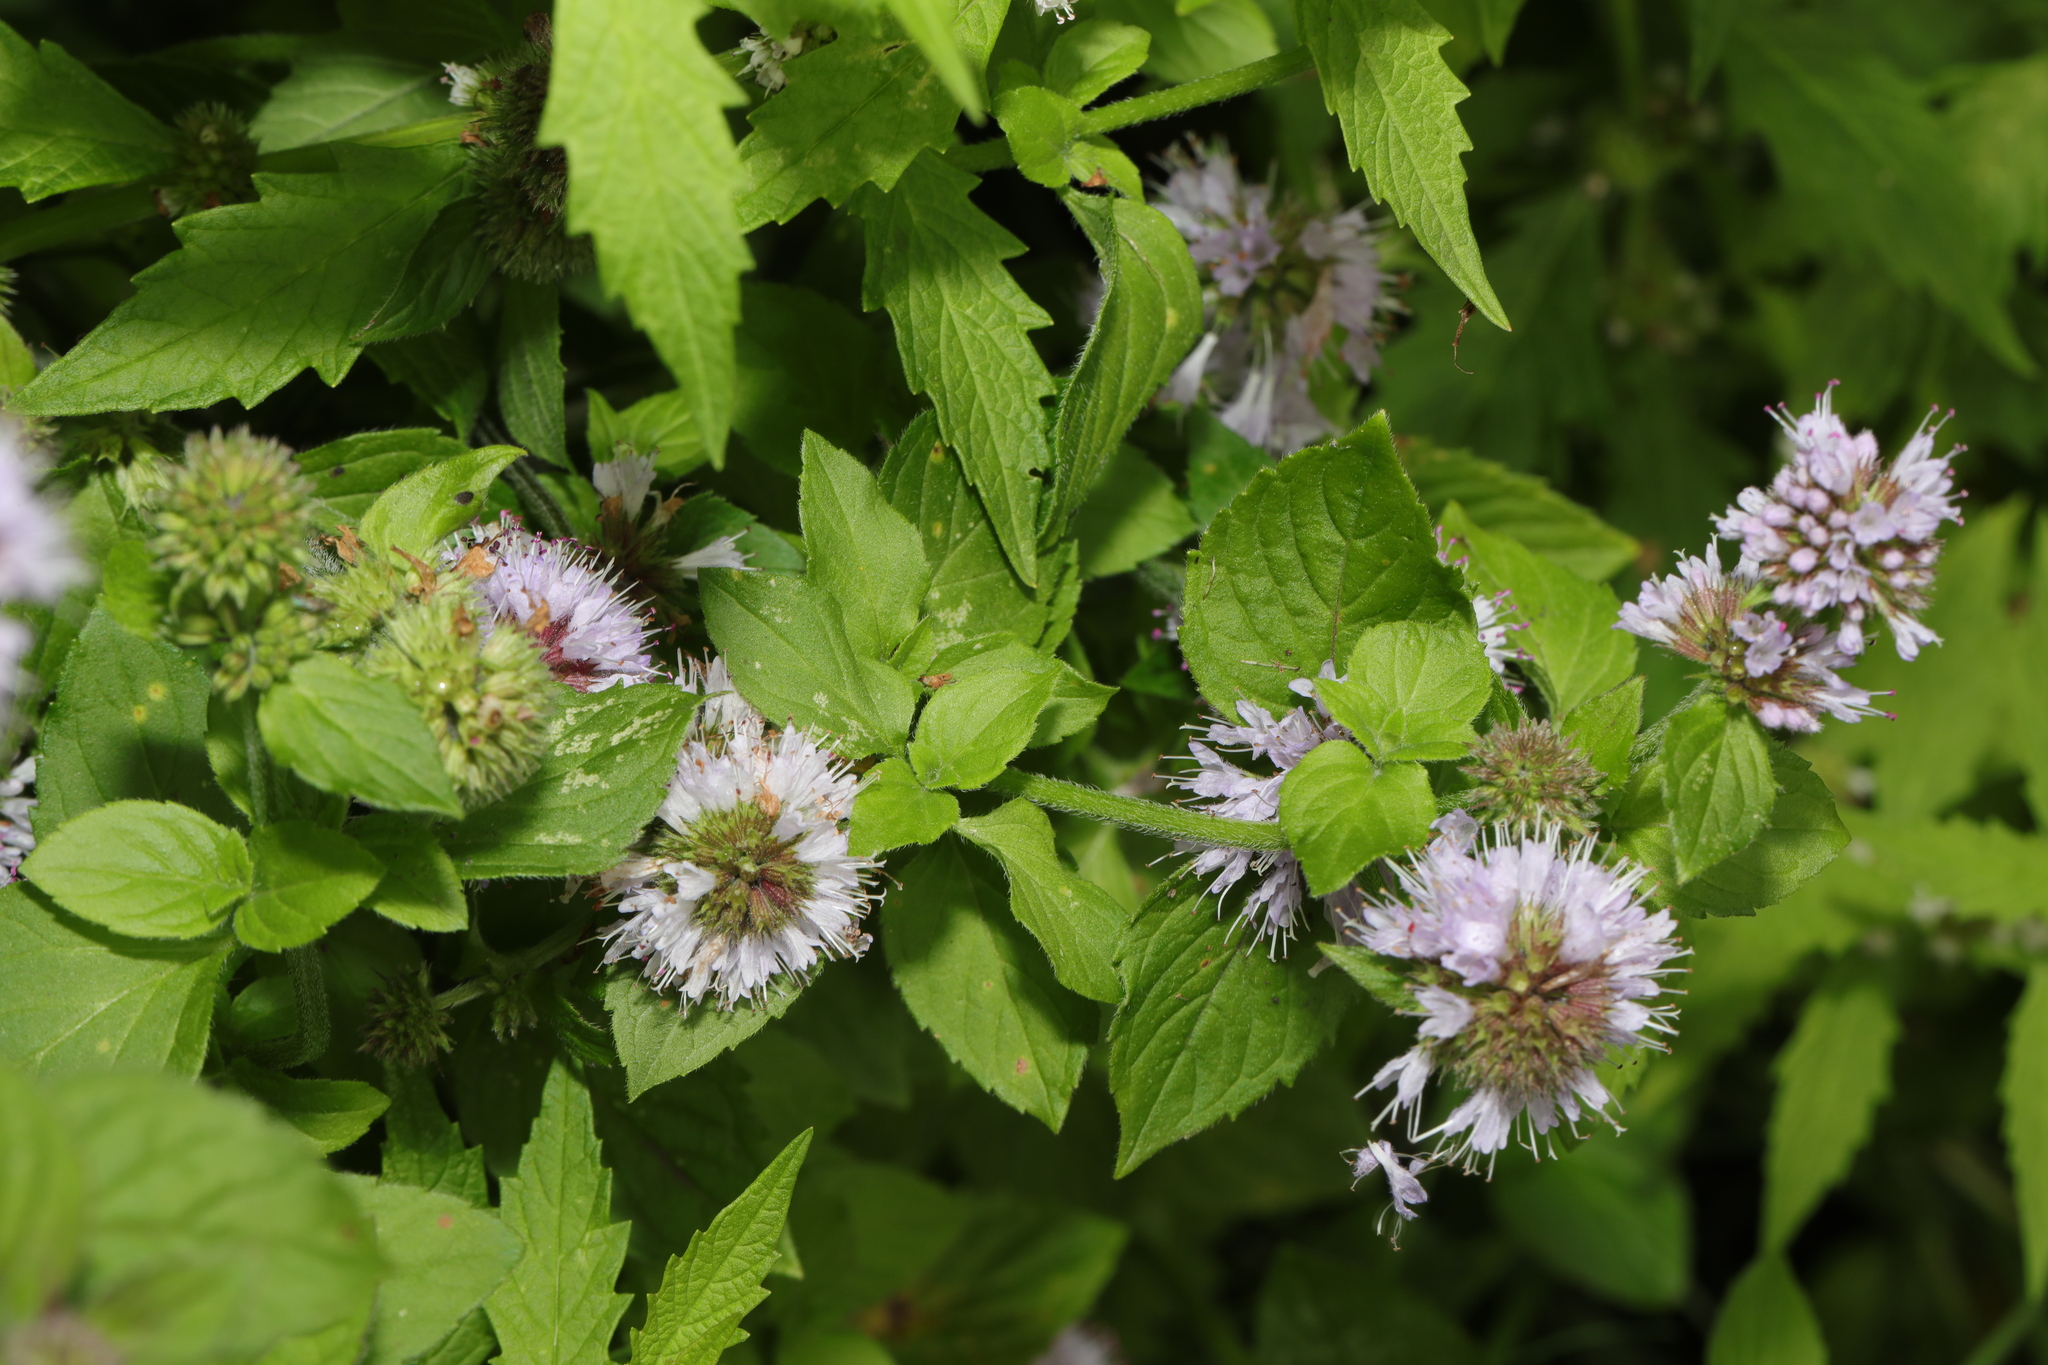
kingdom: Plantae
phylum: Tracheophyta
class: Magnoliopsida
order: Lamiales
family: Lamiaceae
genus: Mentha
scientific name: Mentha aquatica
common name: Water mint
